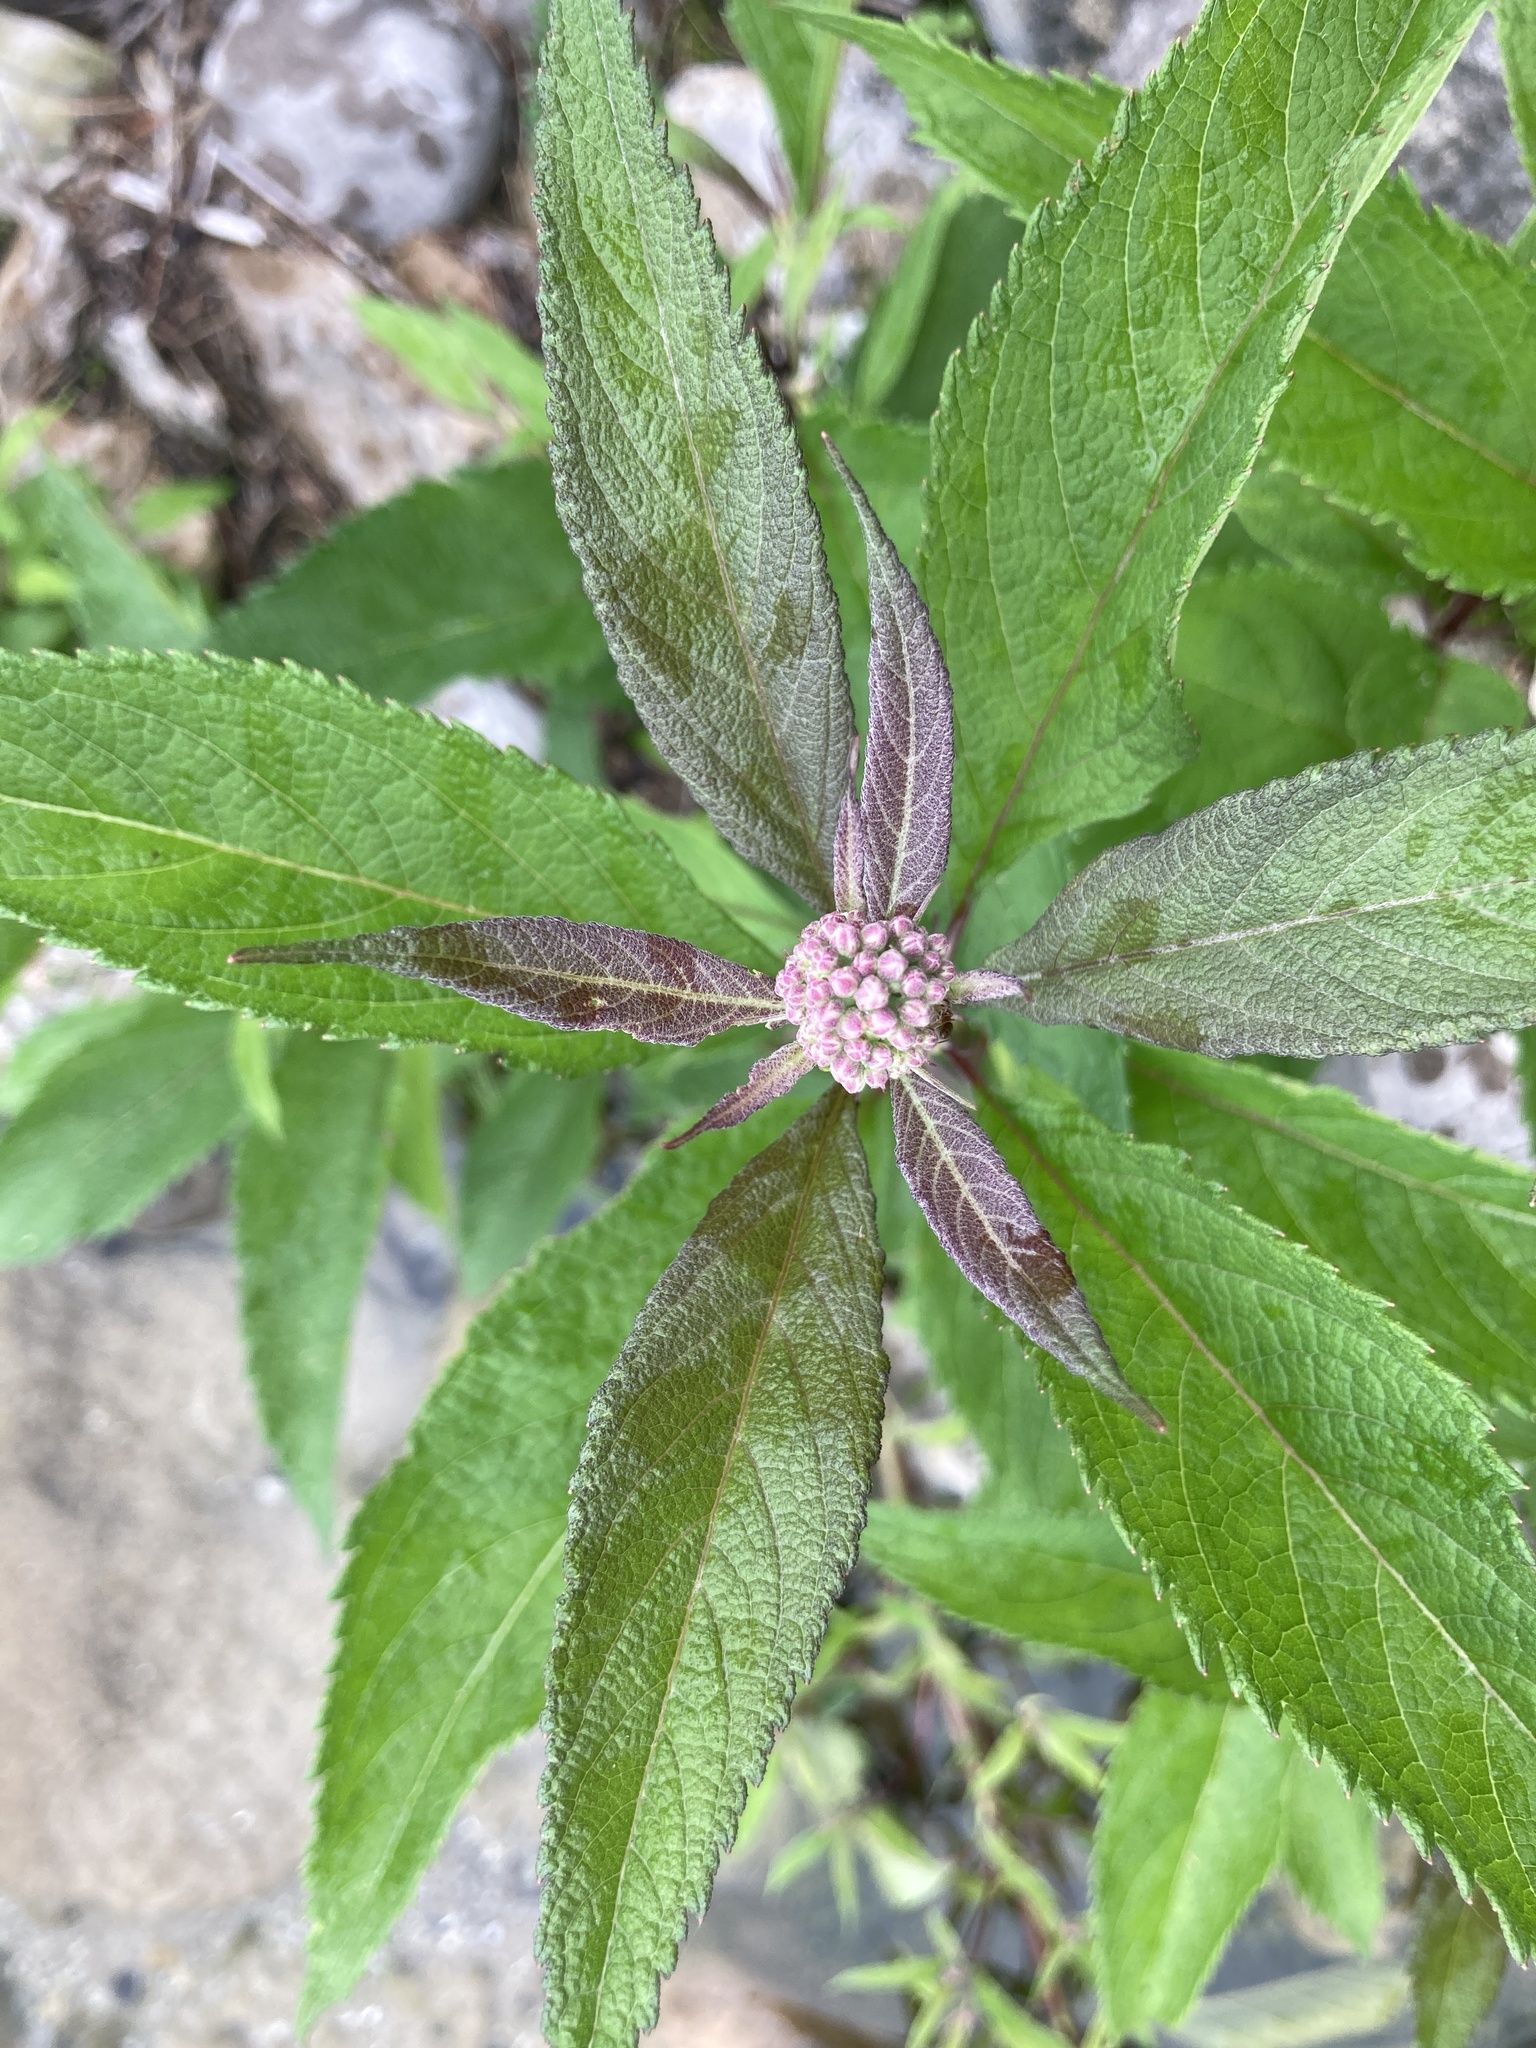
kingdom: Plantae
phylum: Tracheophyta
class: Magnoliopsida
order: Asterales
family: Asteraceae
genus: Eutrochium
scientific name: Eutrochium maculatum
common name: Spotted joe pye weed
